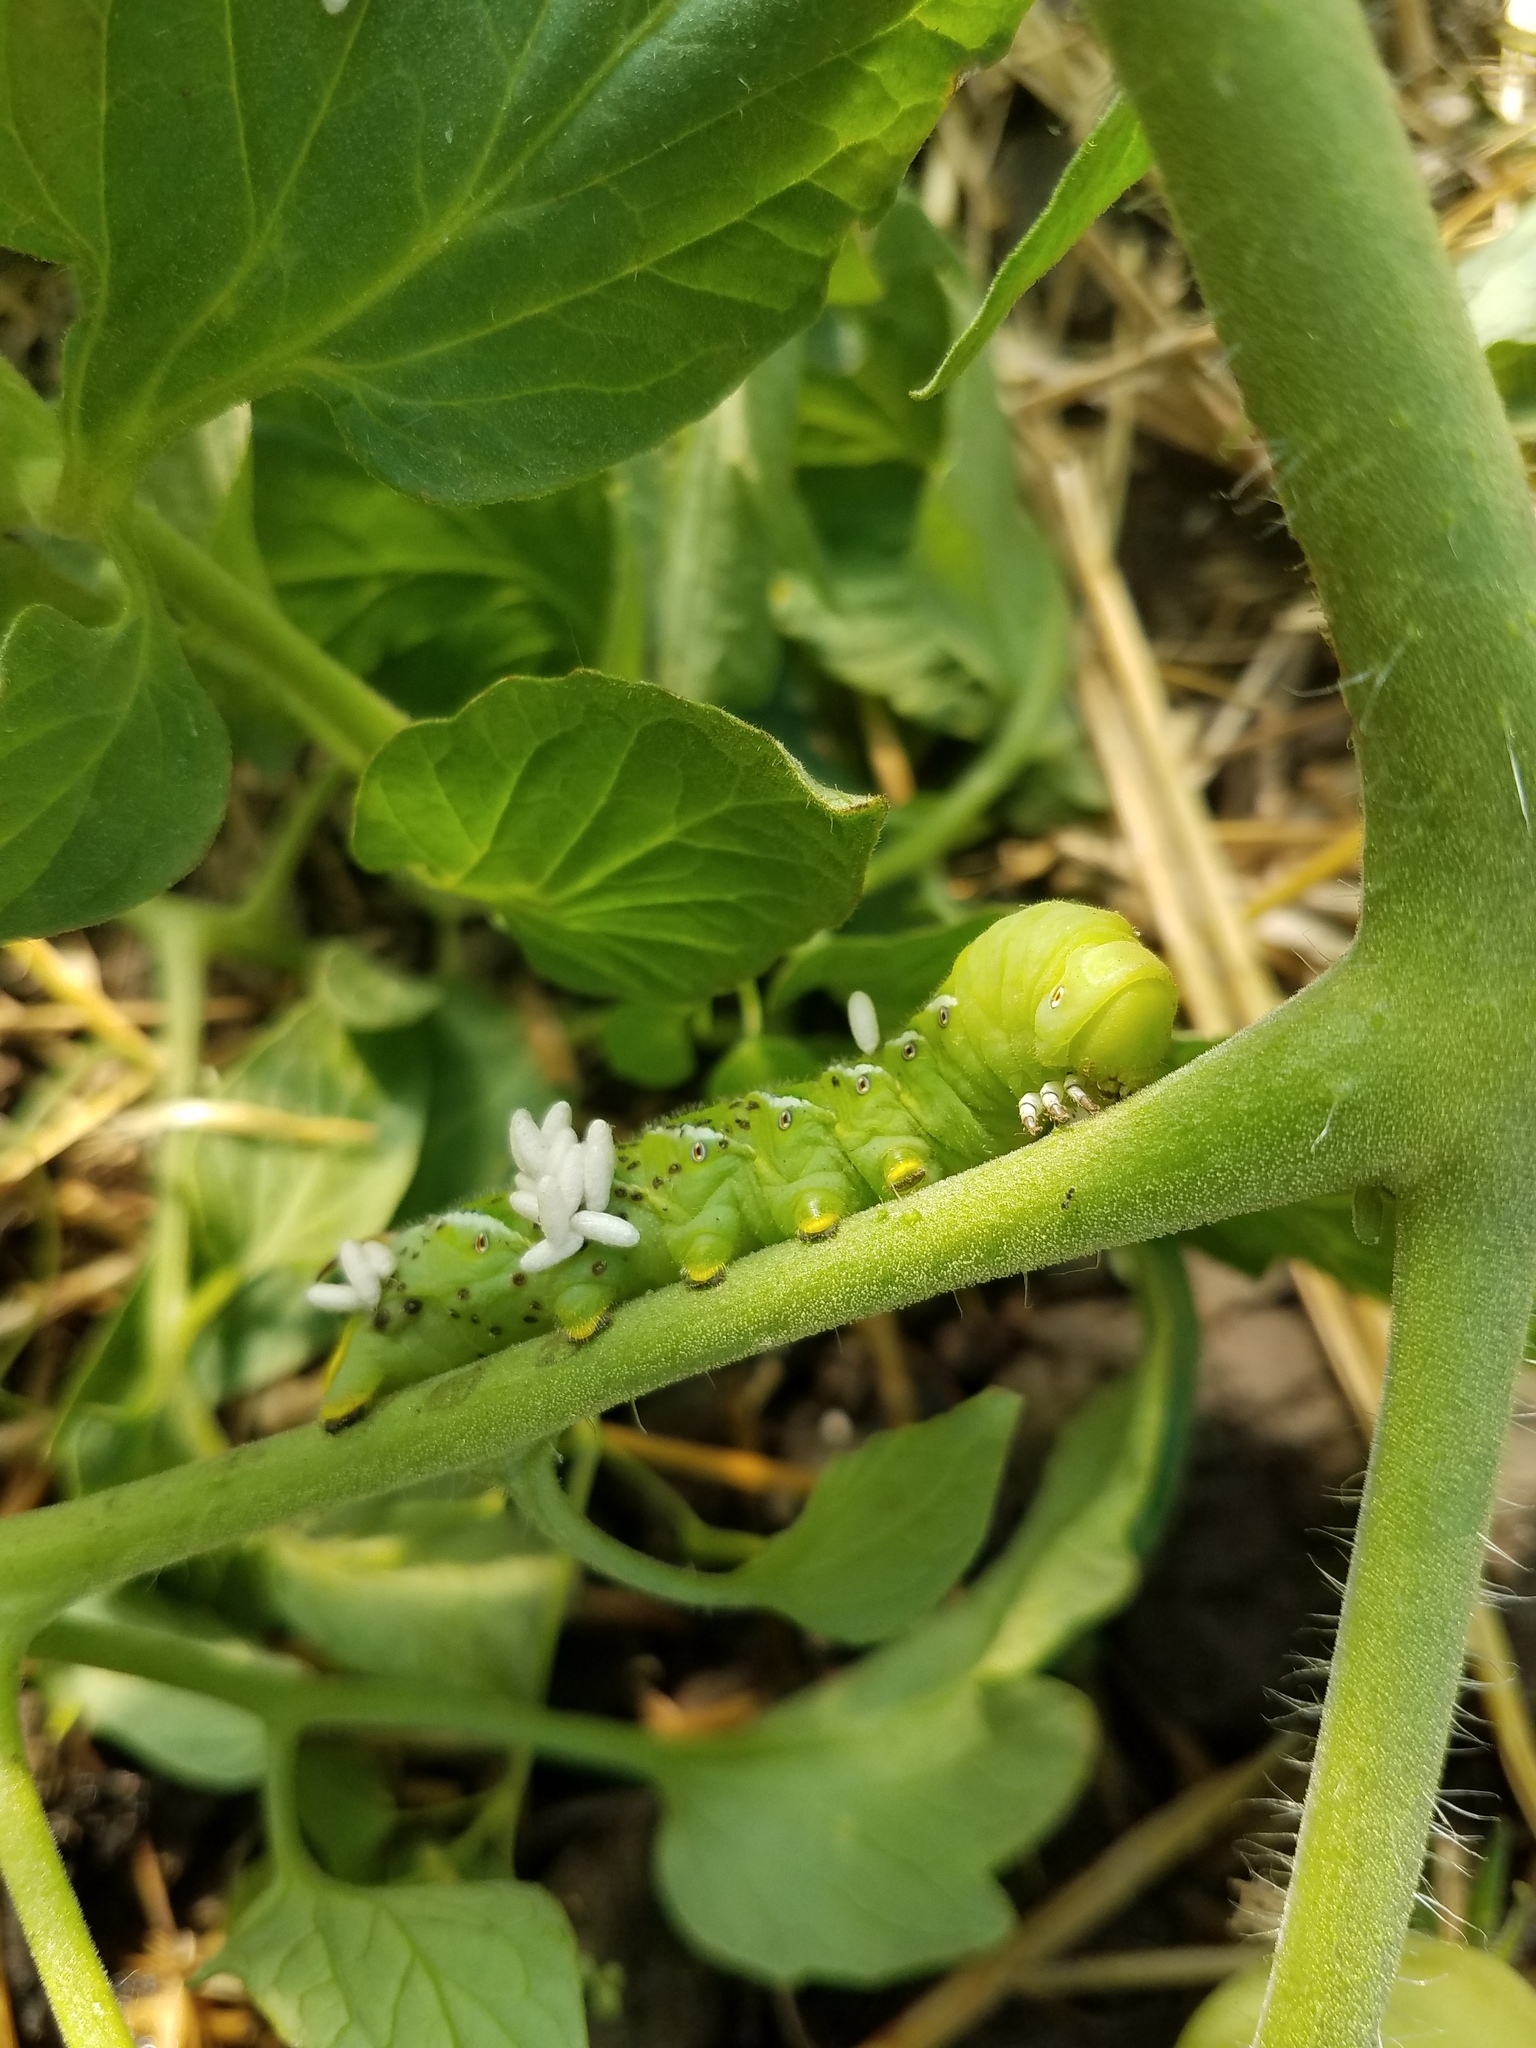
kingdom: Animalia
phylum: Arthropoda
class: Insecta
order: Hymenoptera
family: Braconidae
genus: Cotesia
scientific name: Cotesia congregata
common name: Hornworm parasitoid wasp
